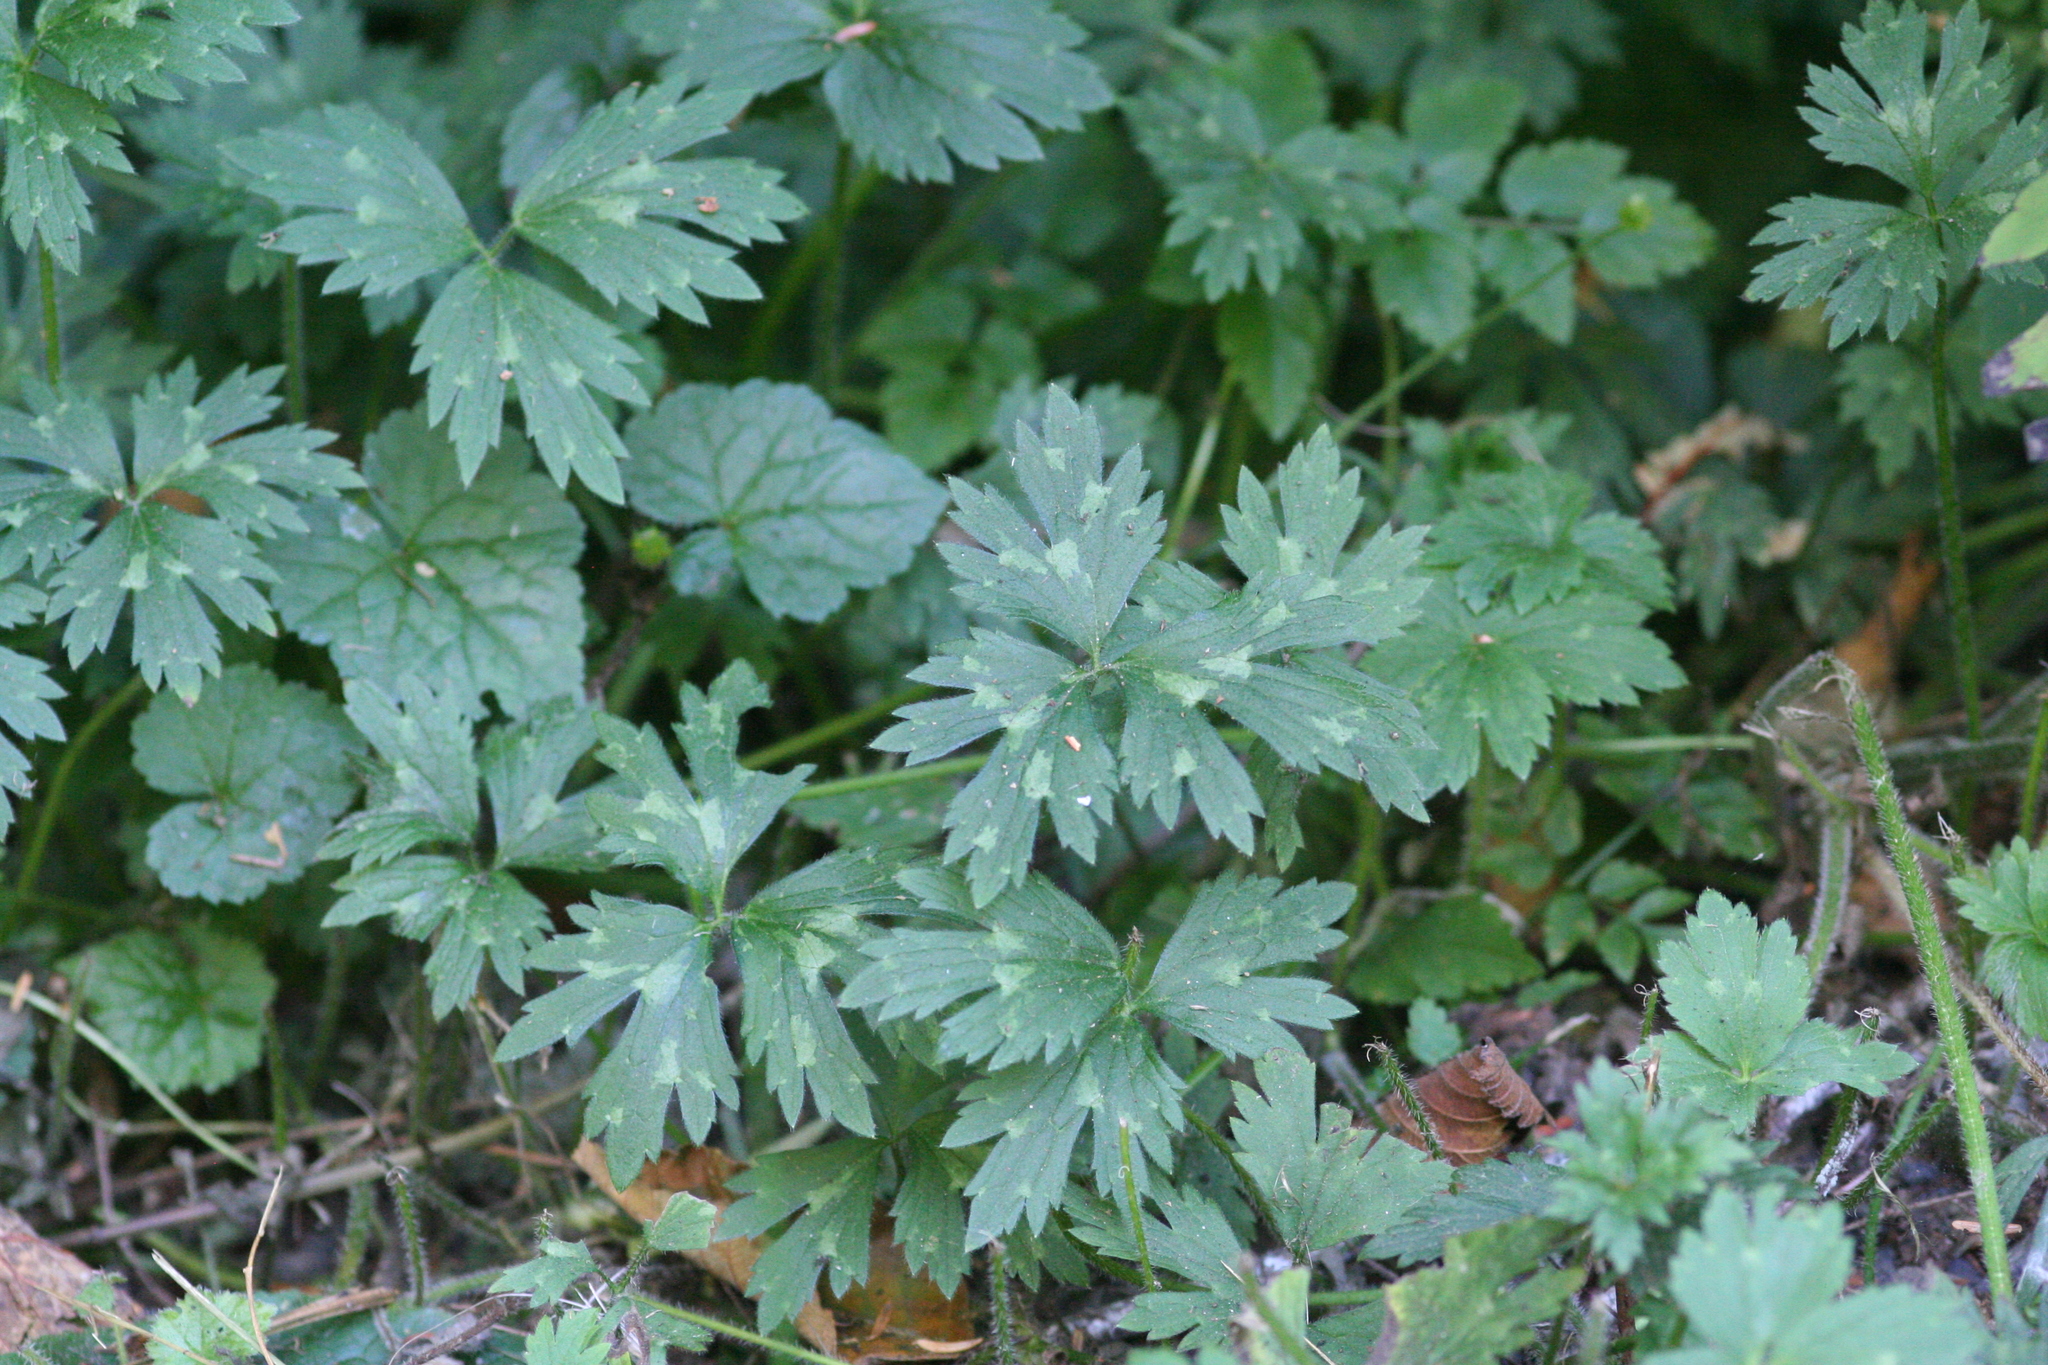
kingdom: Plantae
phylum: Tracheophyta
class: Magnoliopsida
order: Ranunculales
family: Ranunculaceae
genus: Ranunculus
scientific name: Ranunculus repens
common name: Creeping buttercup
